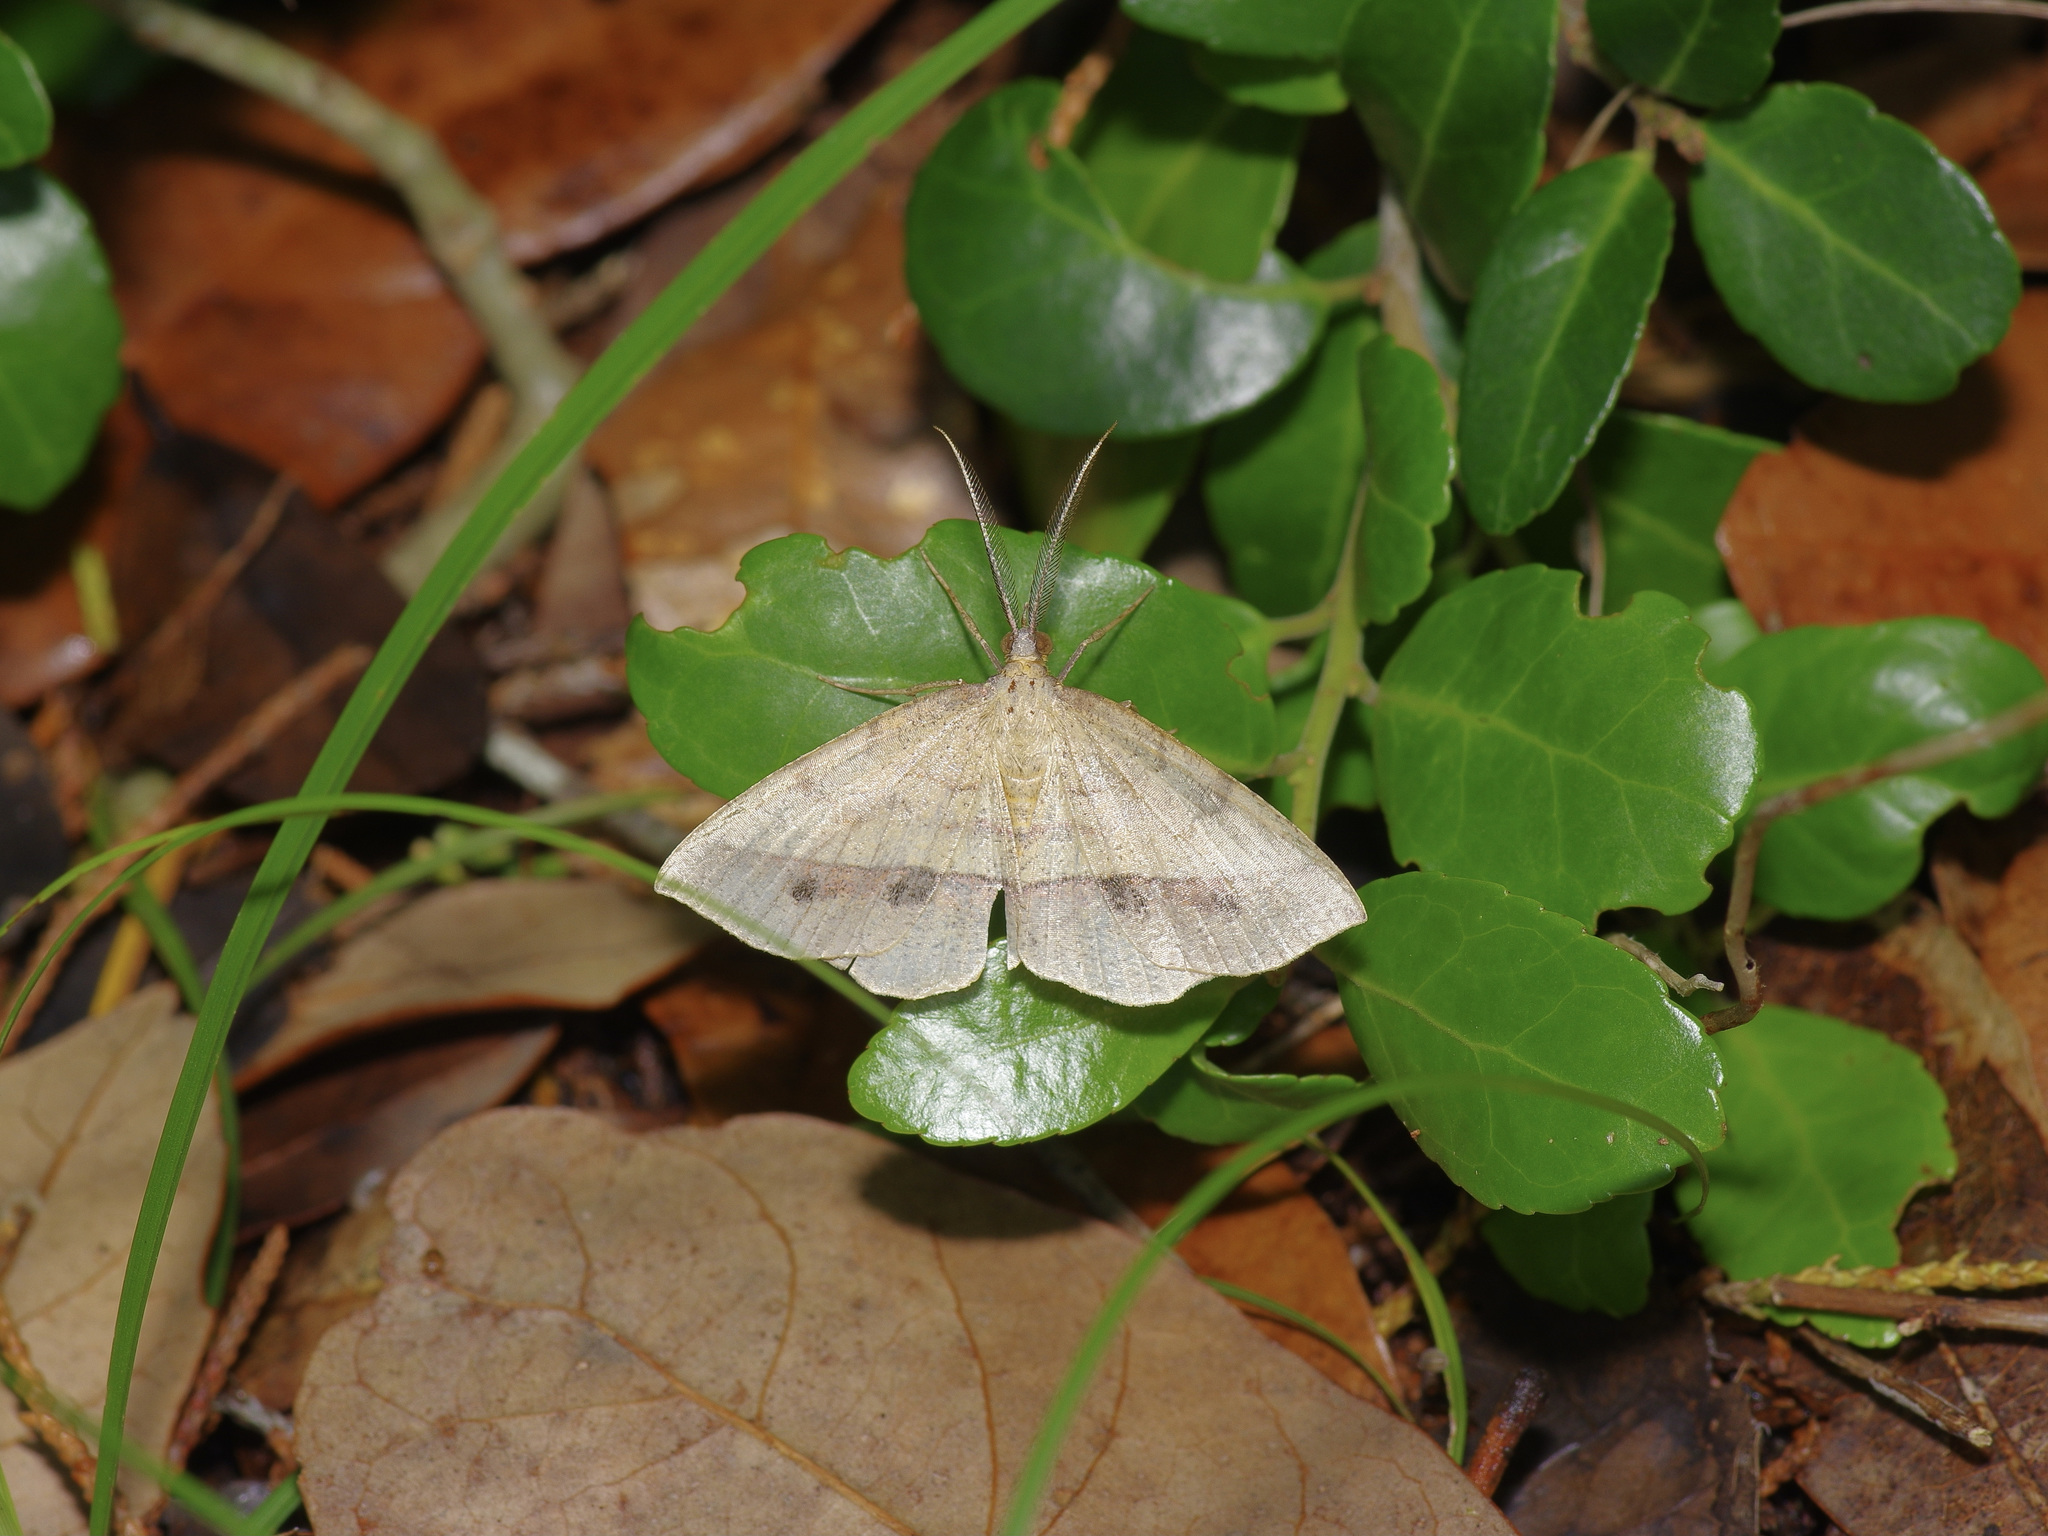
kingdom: Animalia
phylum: Arthropoda
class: Insecta
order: Lepidoptera
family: Geometridae
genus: Erastria
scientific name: Erastria cruentaria
